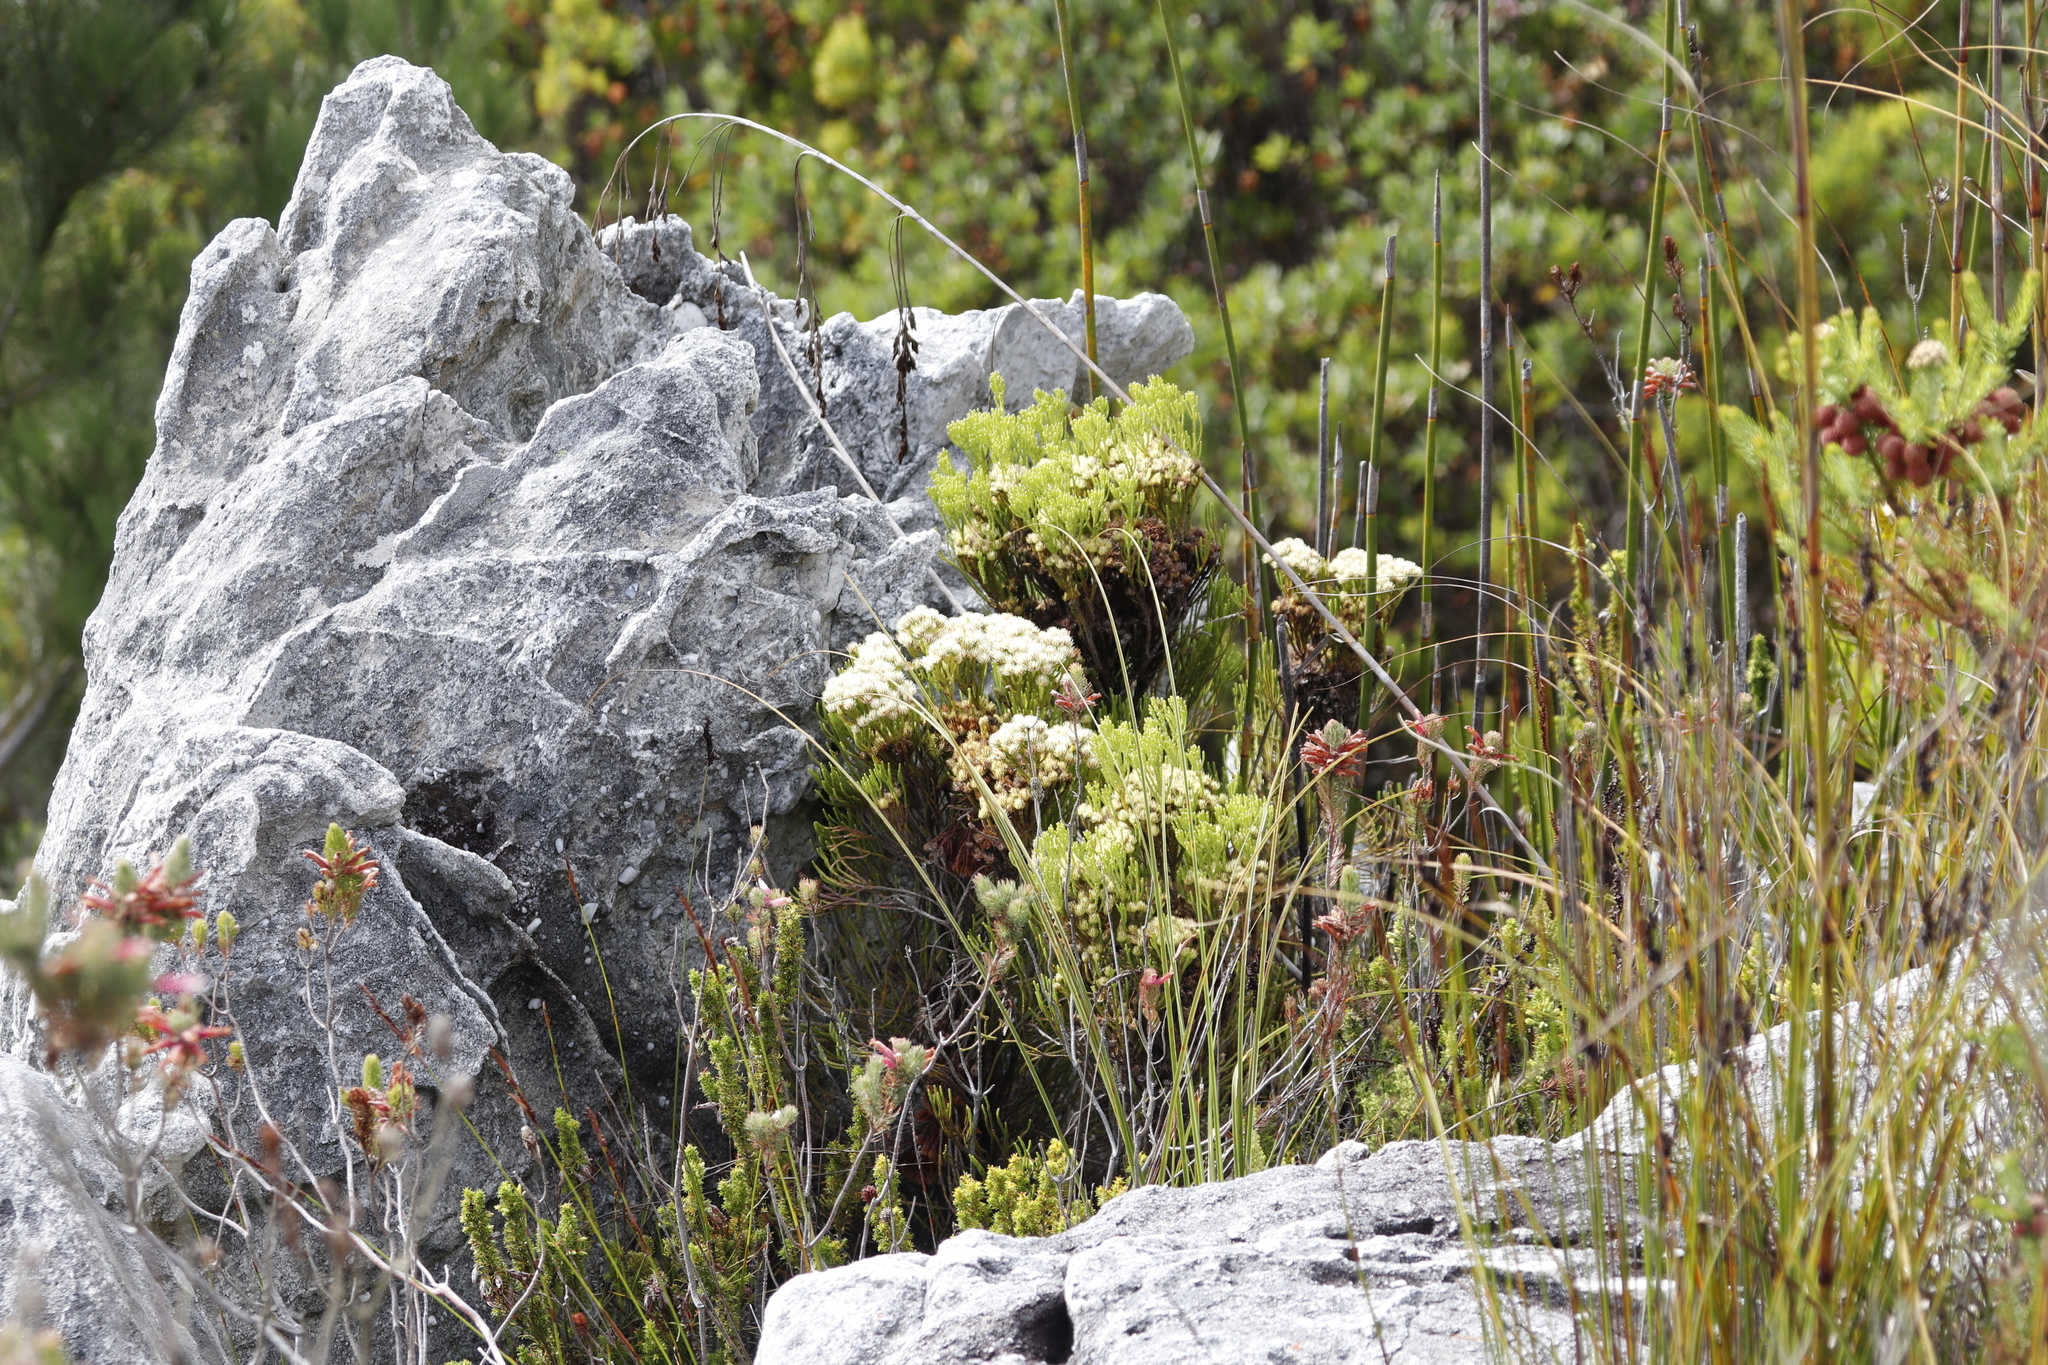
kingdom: Plantae
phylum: Tracheophyta
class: Magnoliopsida
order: Bruniales
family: Bruniaceae
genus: Brunia
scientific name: Brunia paleacea
